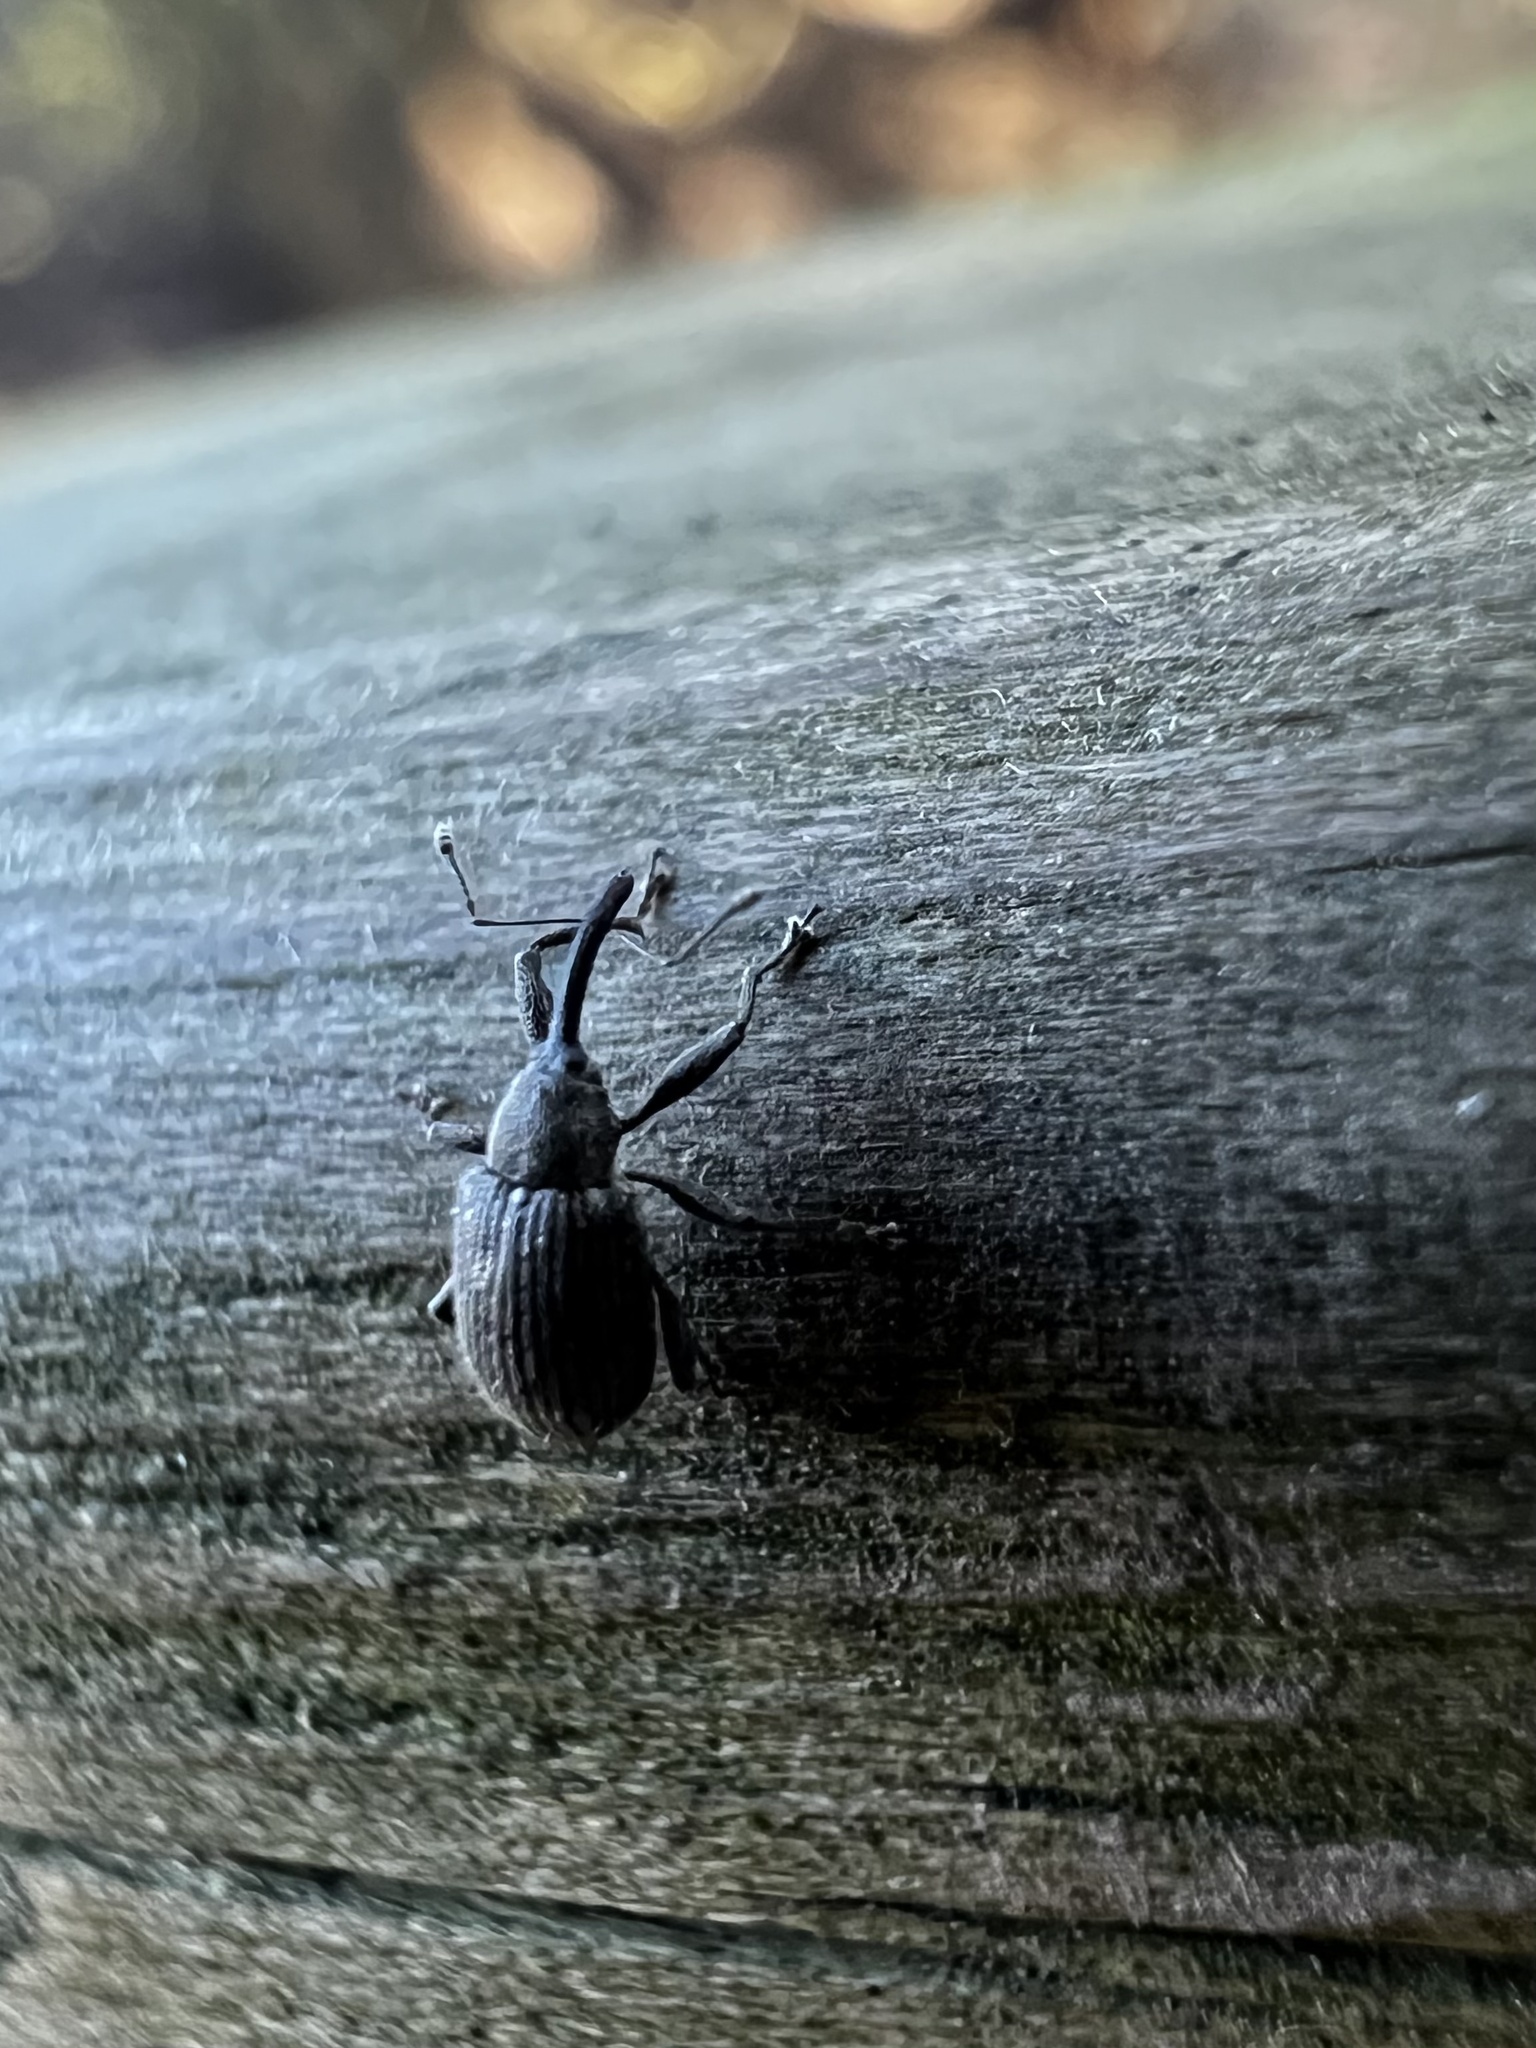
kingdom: Animalia
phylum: Arthropoda
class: Insecta
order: Coleoptera
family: Curculionidae
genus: Anthonomus
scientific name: Anthonomus rubi
